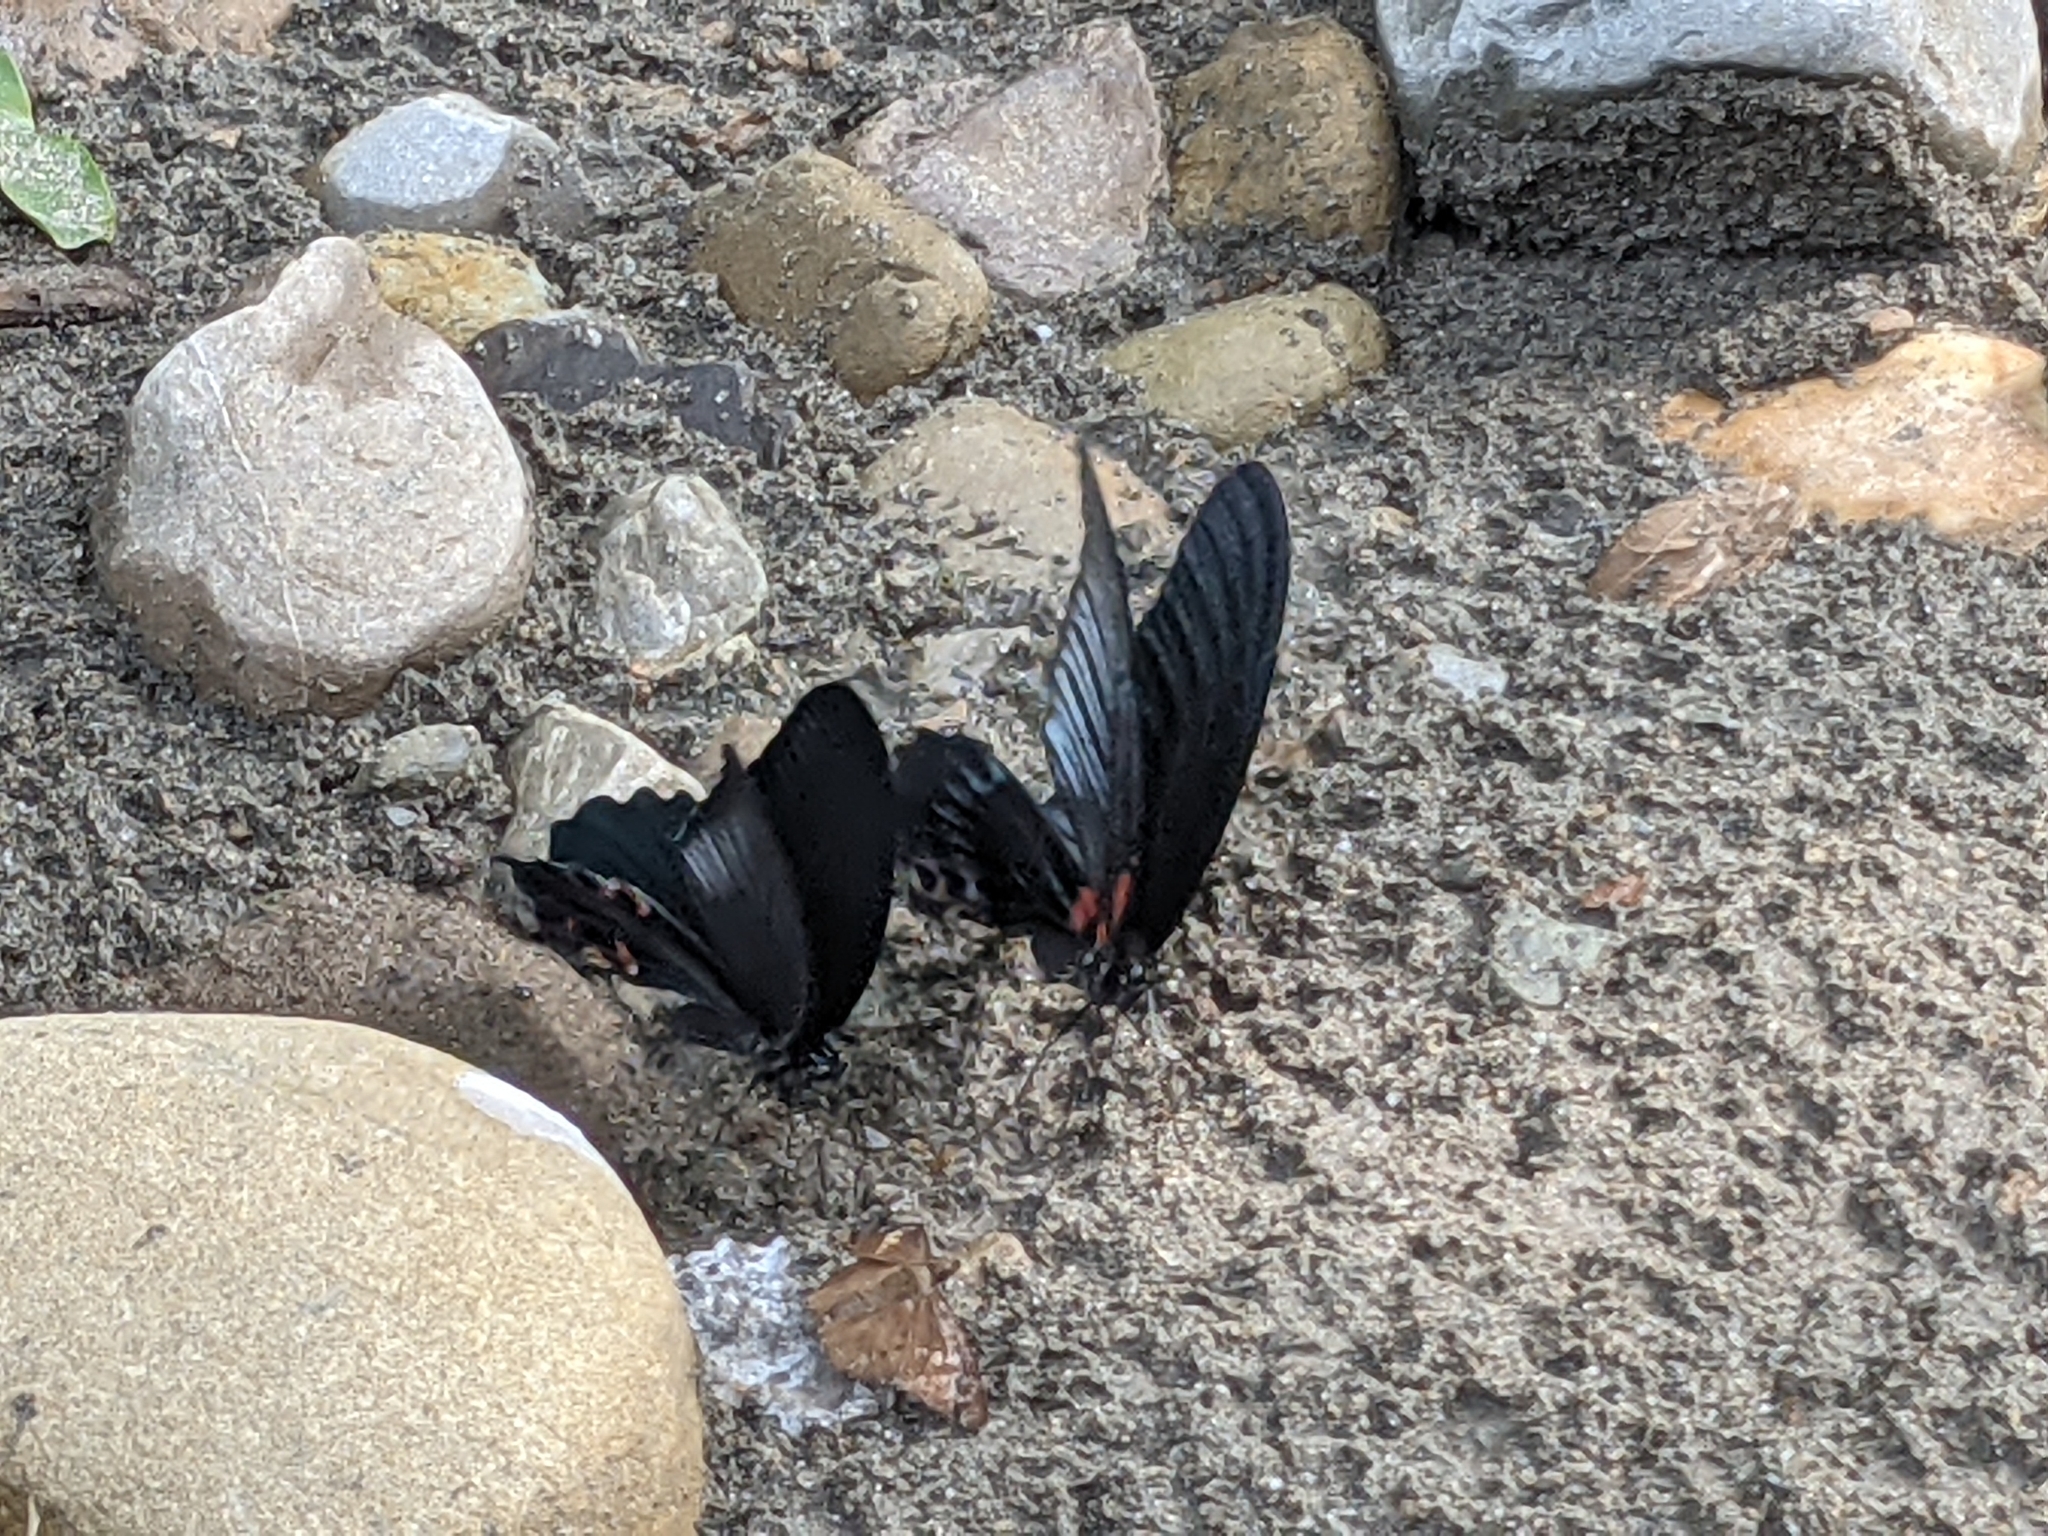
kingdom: Animalia
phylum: Arthropoda
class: Insecta
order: Lepidoptera
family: Papilionidae
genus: Papilio
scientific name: Papilio protenor
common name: Spangle
